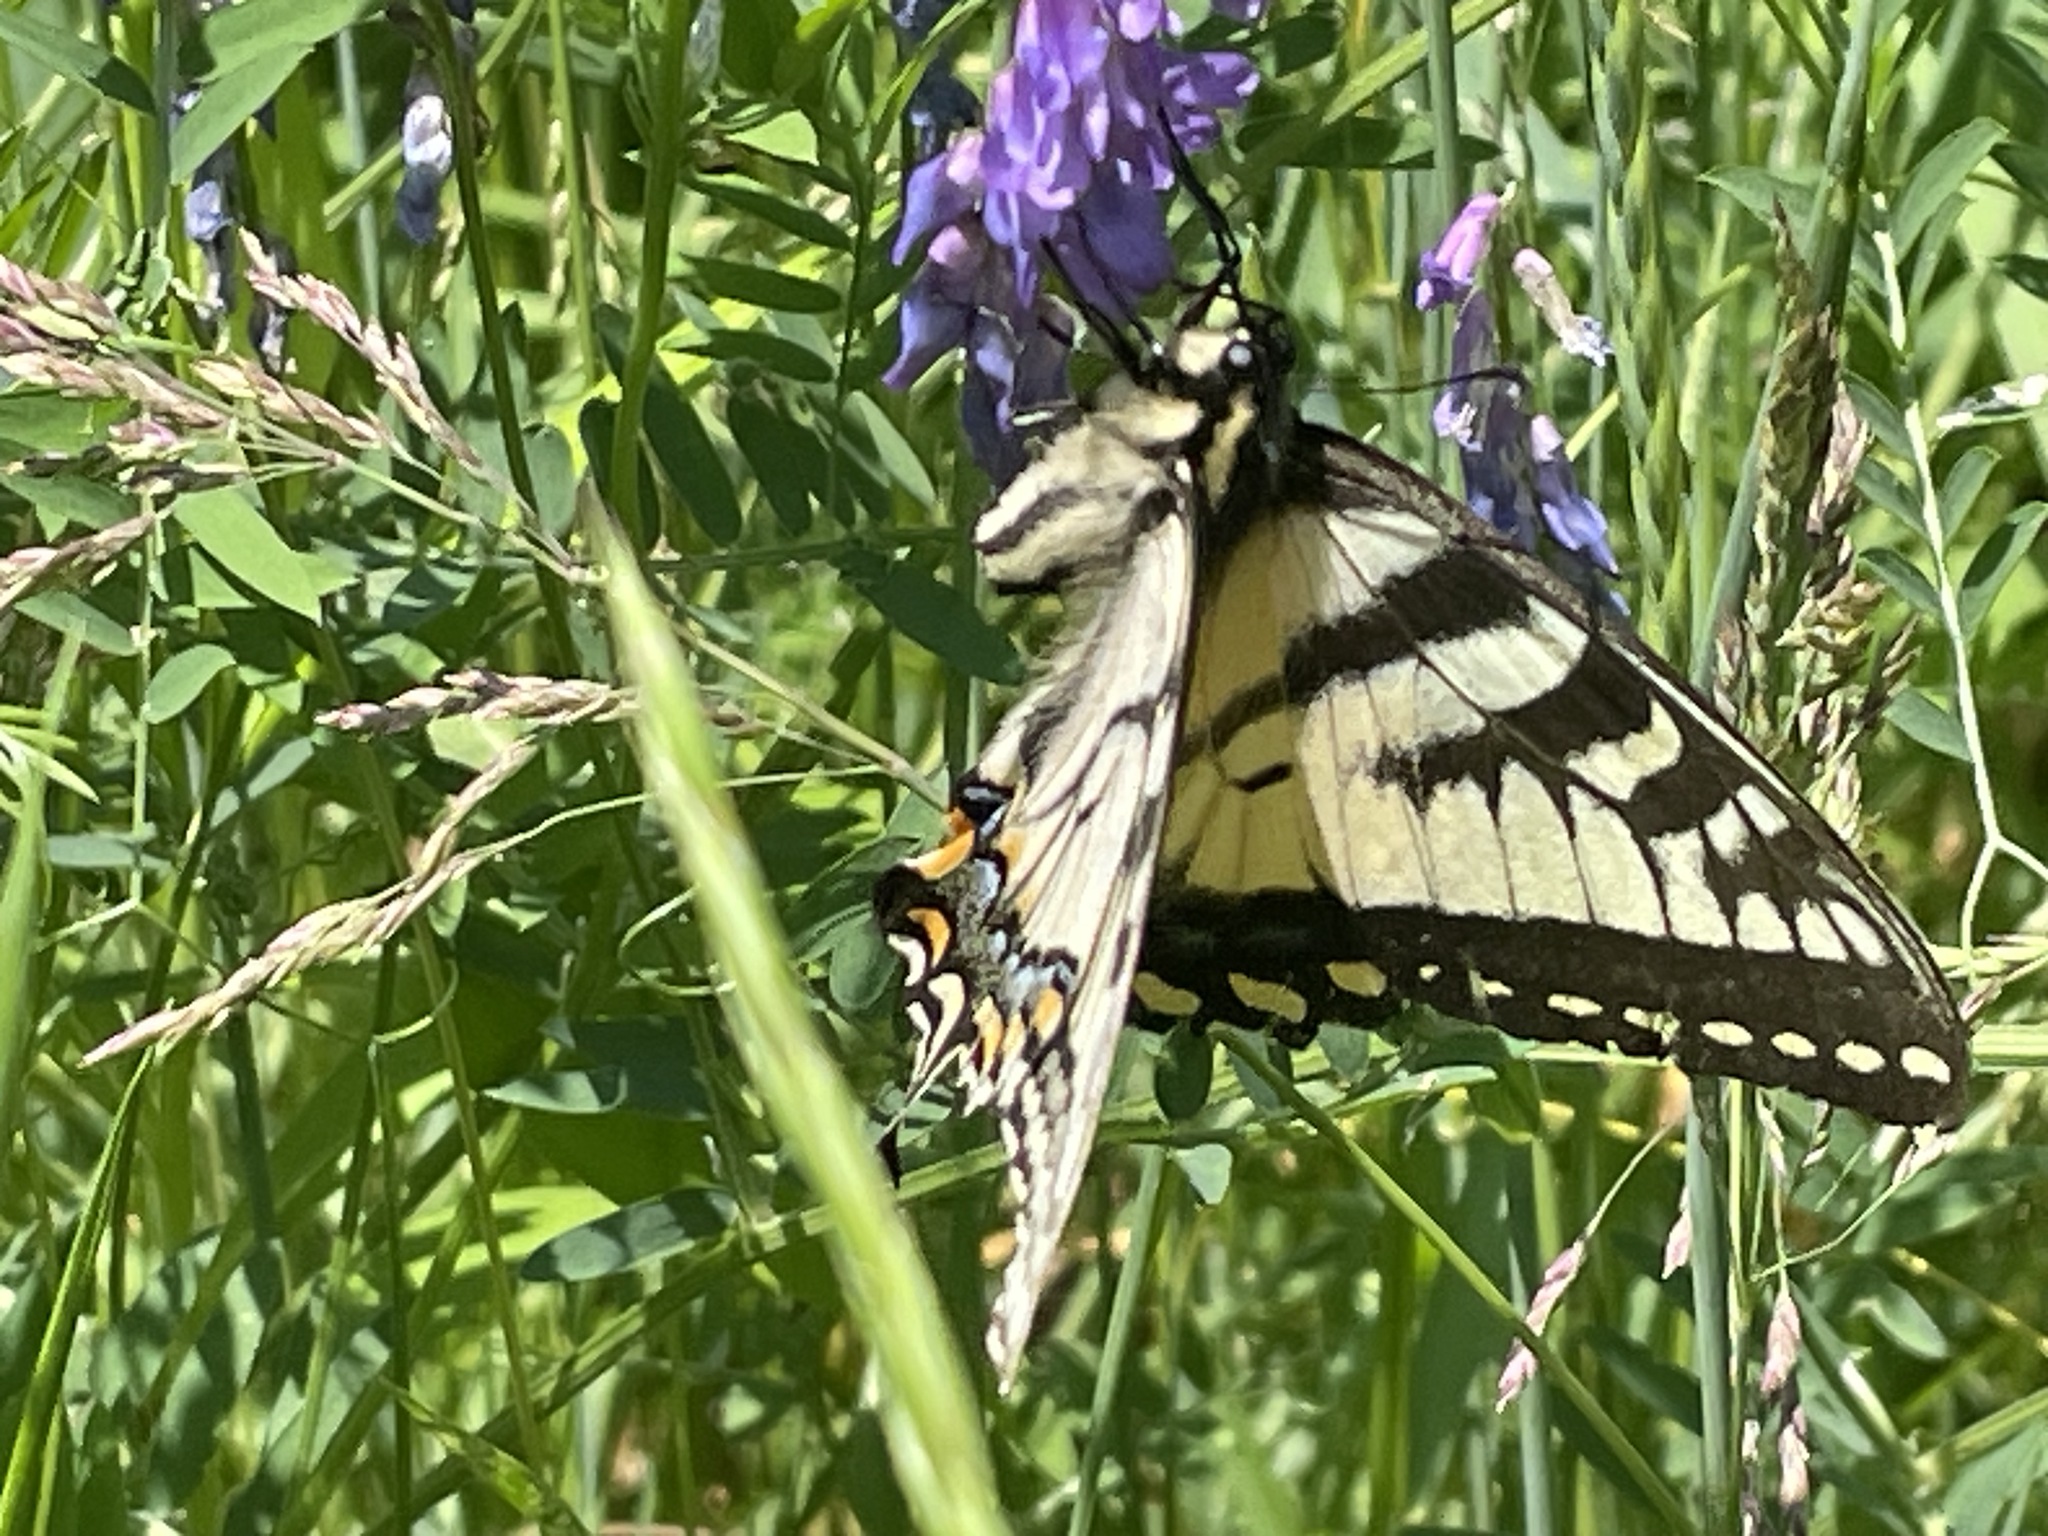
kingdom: Animalia
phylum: Arthropoda
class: Insecta
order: Lepidoptera
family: Papilionidae
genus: Papilio
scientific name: Papilio canadensis
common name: Canadian tiger swallowtail
